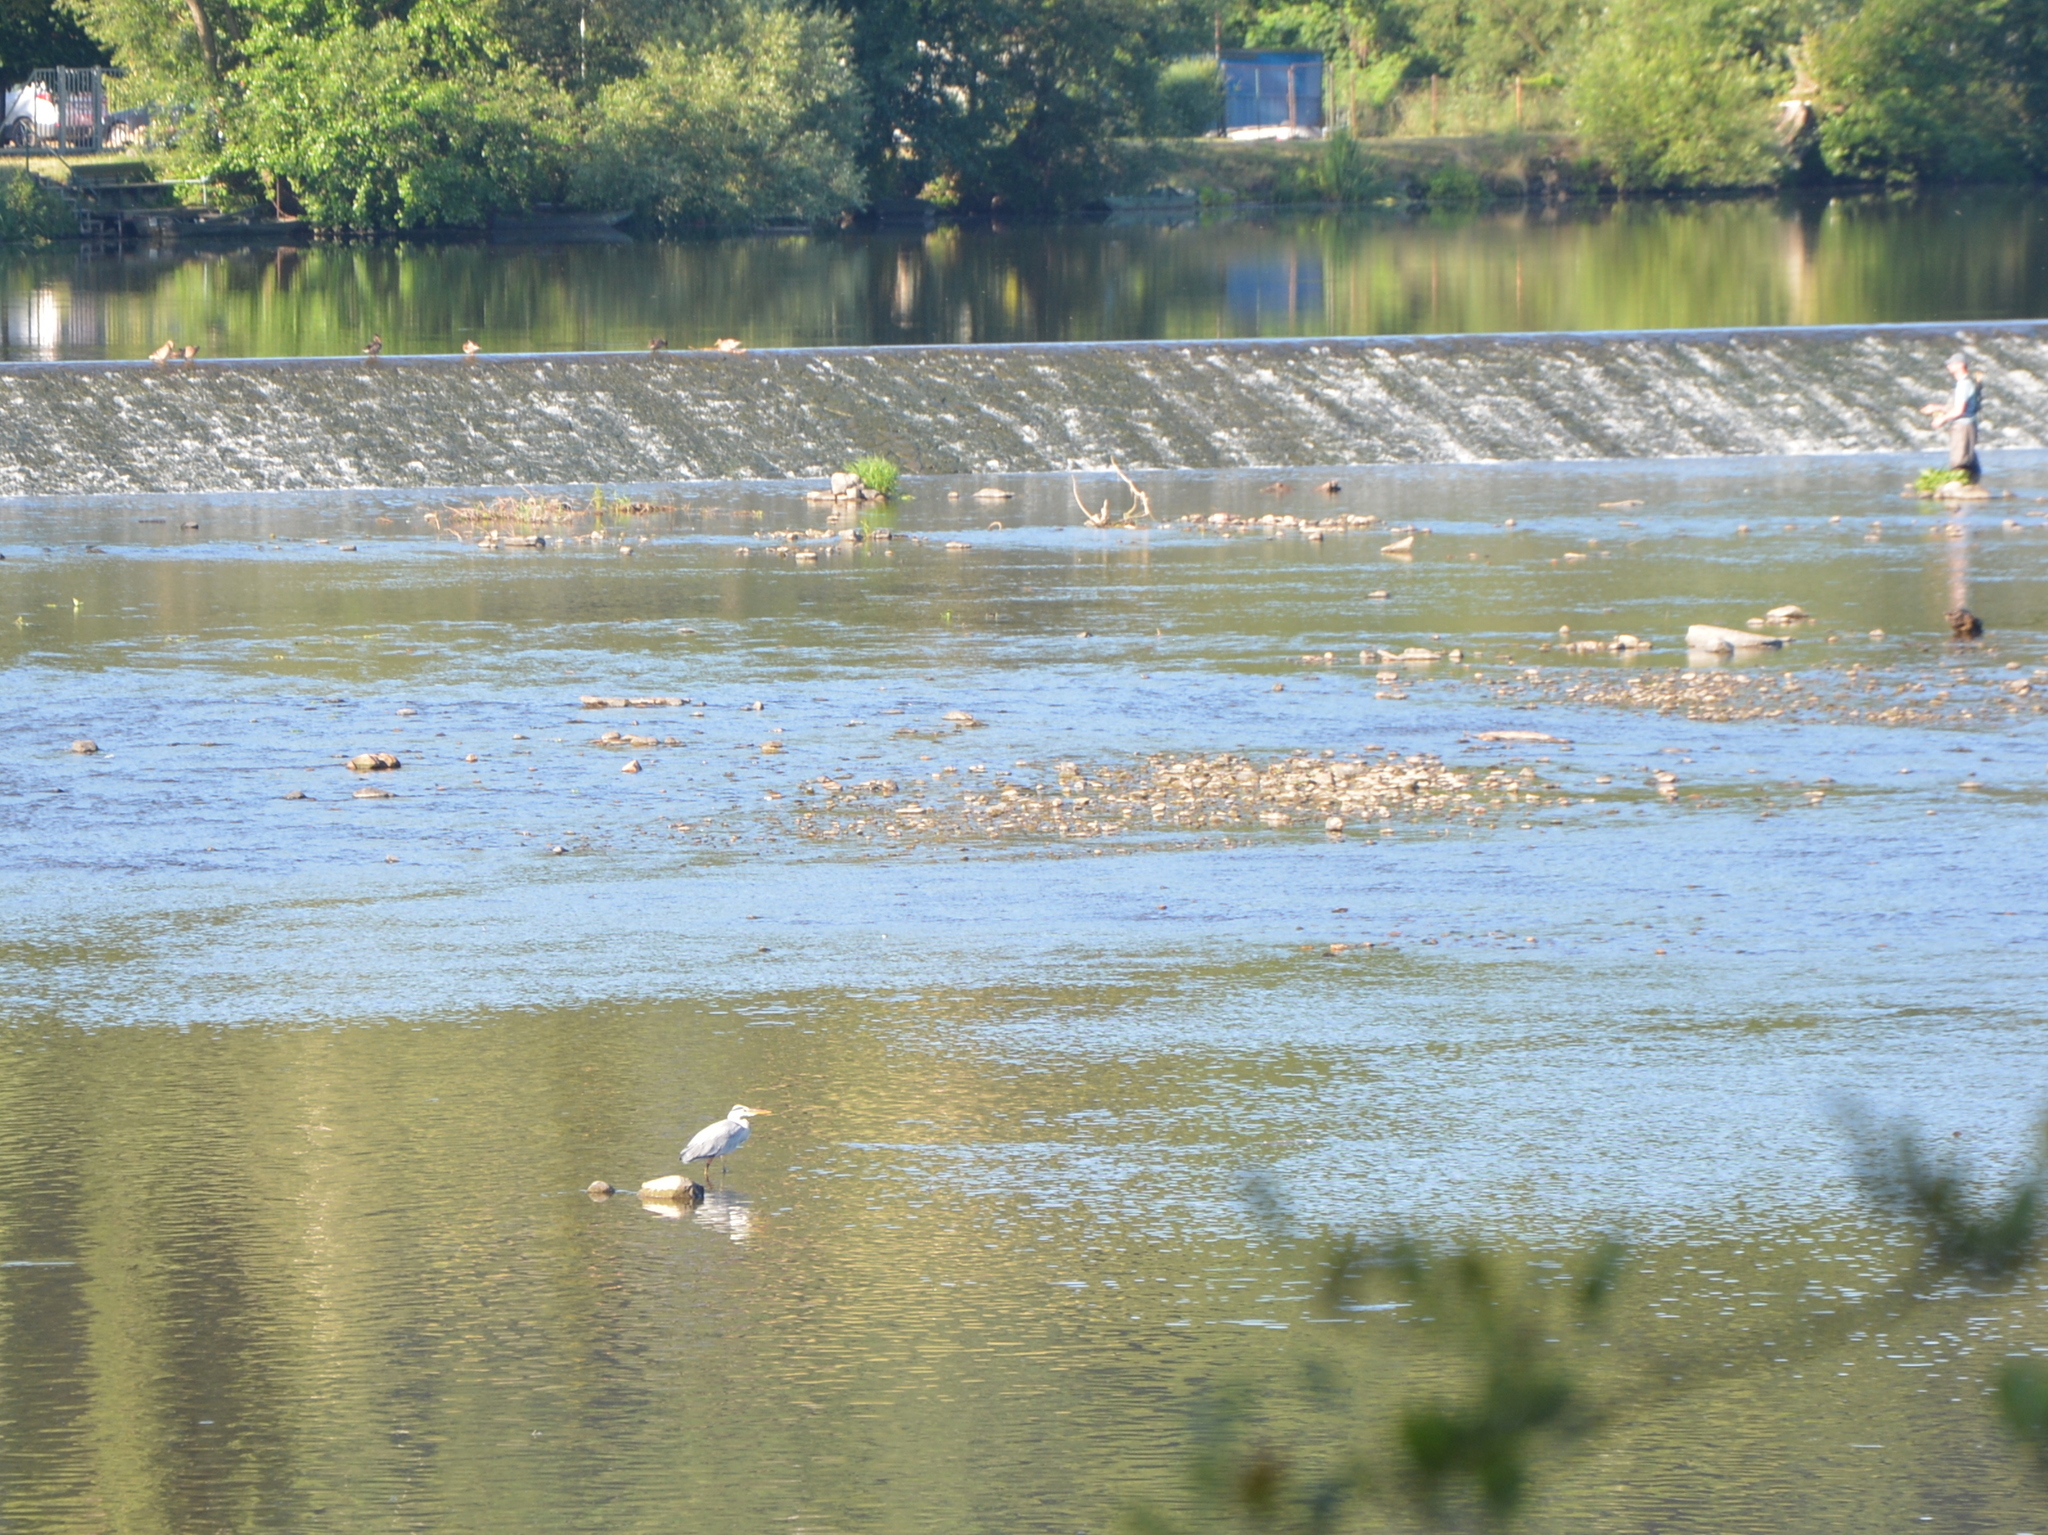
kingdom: Animalia
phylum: Chordata
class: Aves
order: Pelecaniformes
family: Ardeidae
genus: Ardea
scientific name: Ardea cinerea
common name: Grey heron
